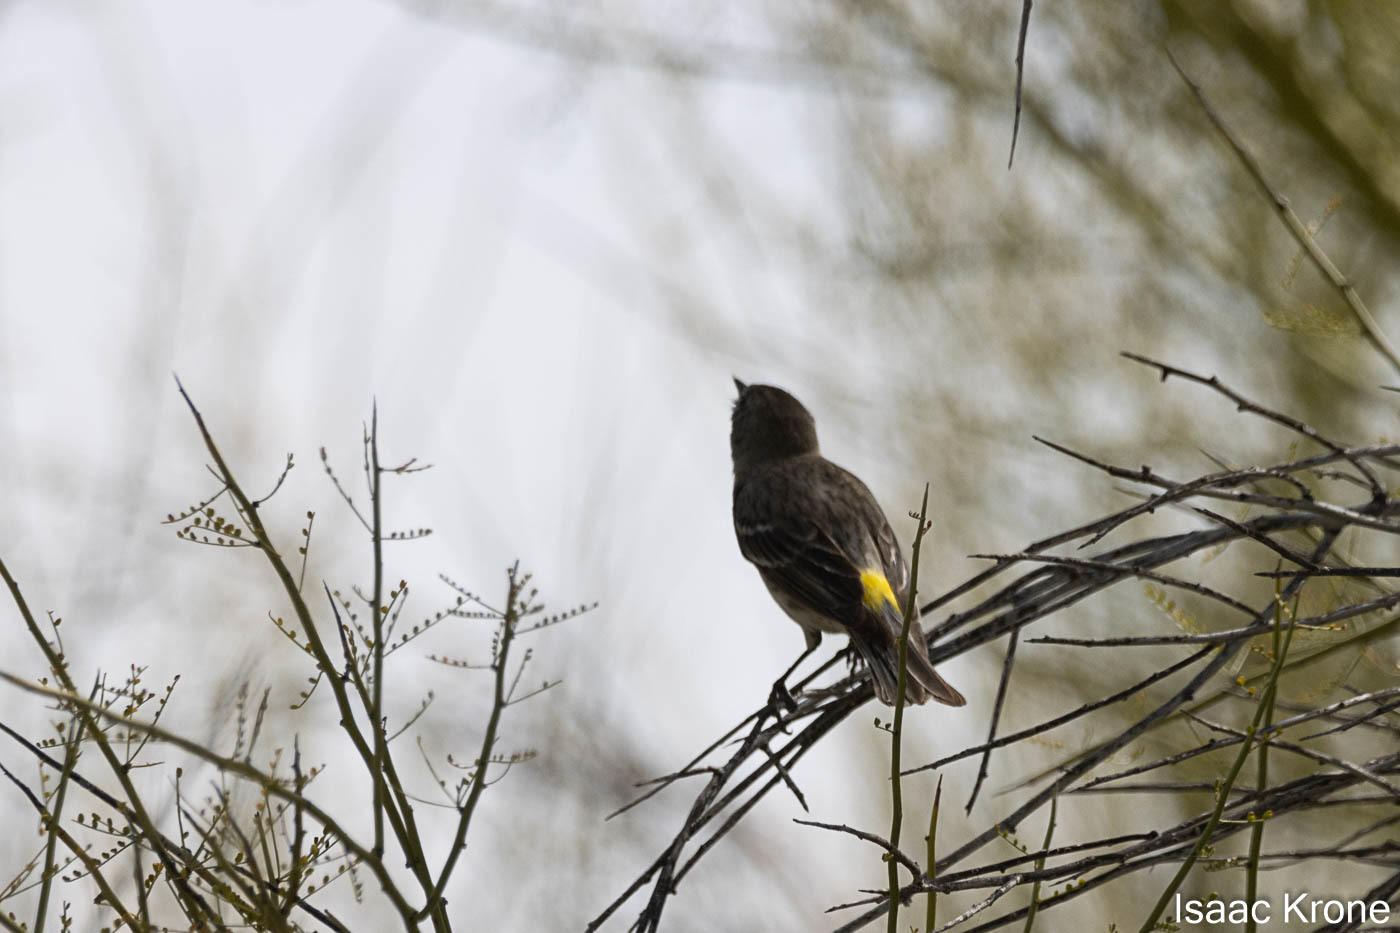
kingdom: Animalia
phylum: Chordata
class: Aves
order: Passeriformes
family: Parulidae
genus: Setophaga
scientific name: Setophaga coronata
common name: Myrtle warbler
